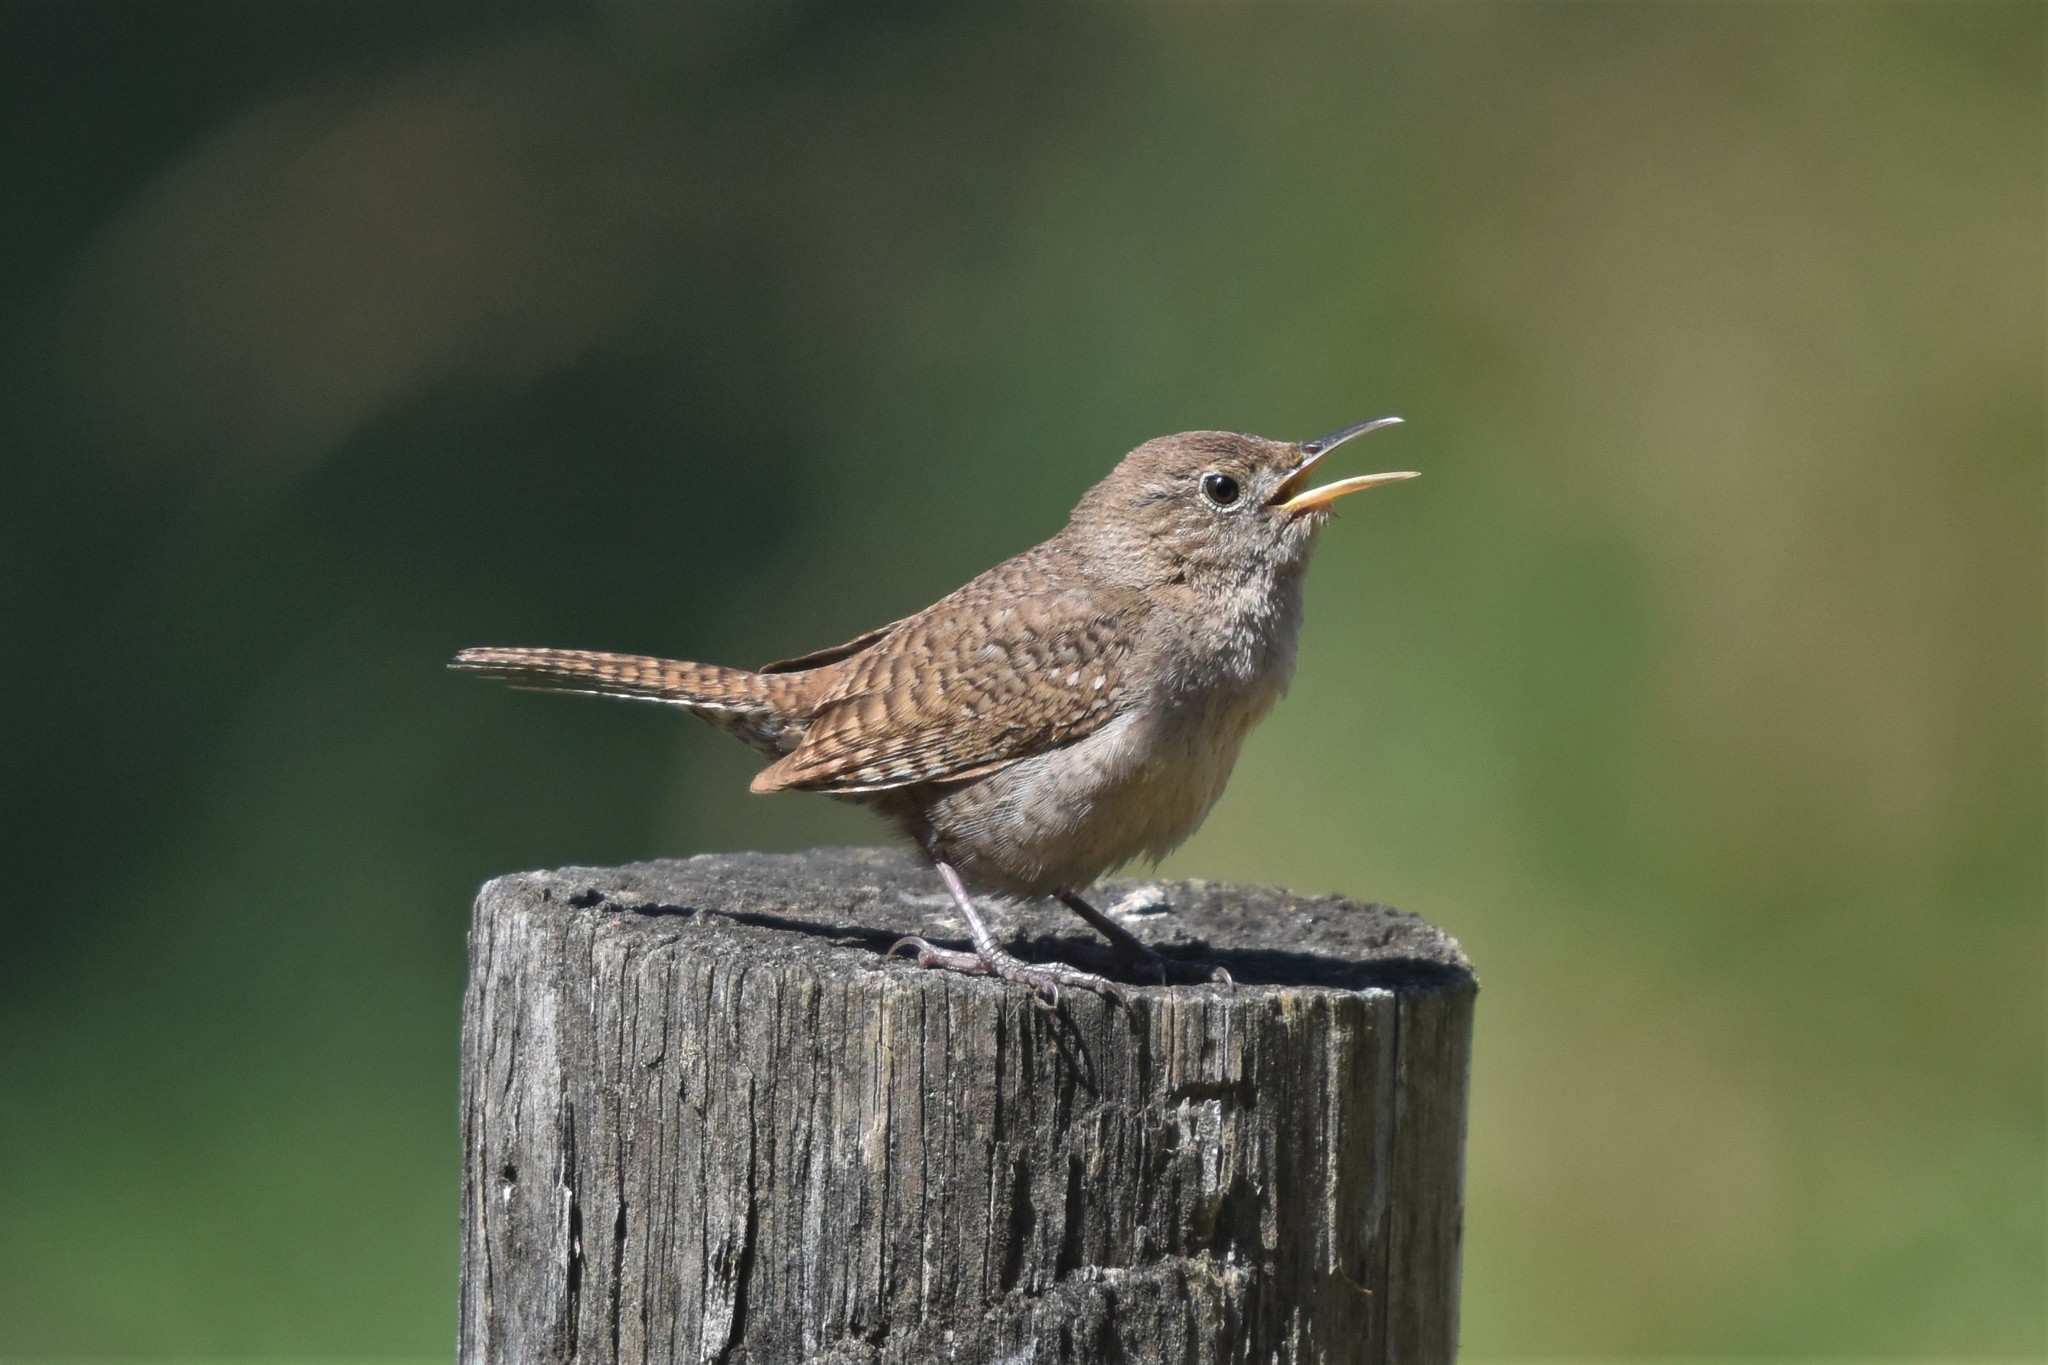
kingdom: Animalia
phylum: Chordata
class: Aves
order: Passeriformes
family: Troglodytidae
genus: Troglodytes
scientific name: Troglodytes aedon
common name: House wren
